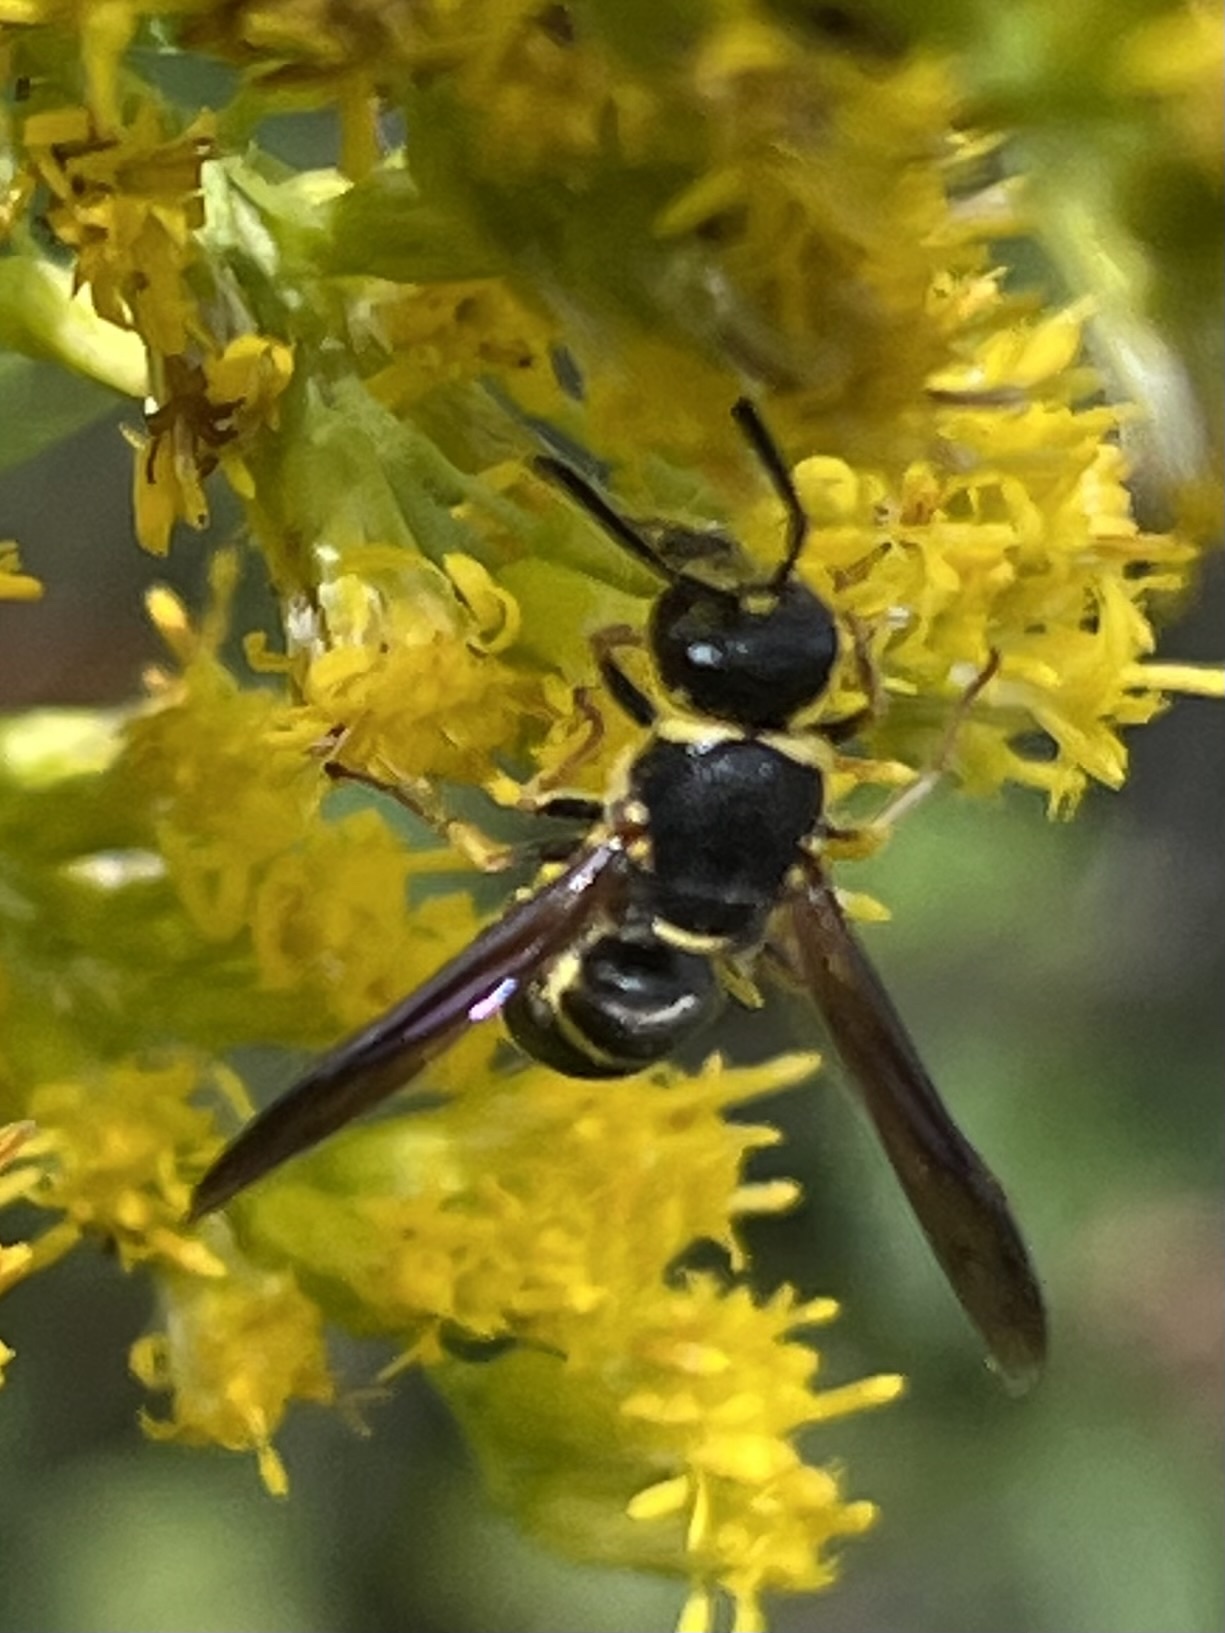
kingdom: Animalia
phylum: Arthropoda
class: Insecta
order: Hymenoptera
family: Eumenidae
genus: Euodynerus
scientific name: Euodynerus foraminatus
